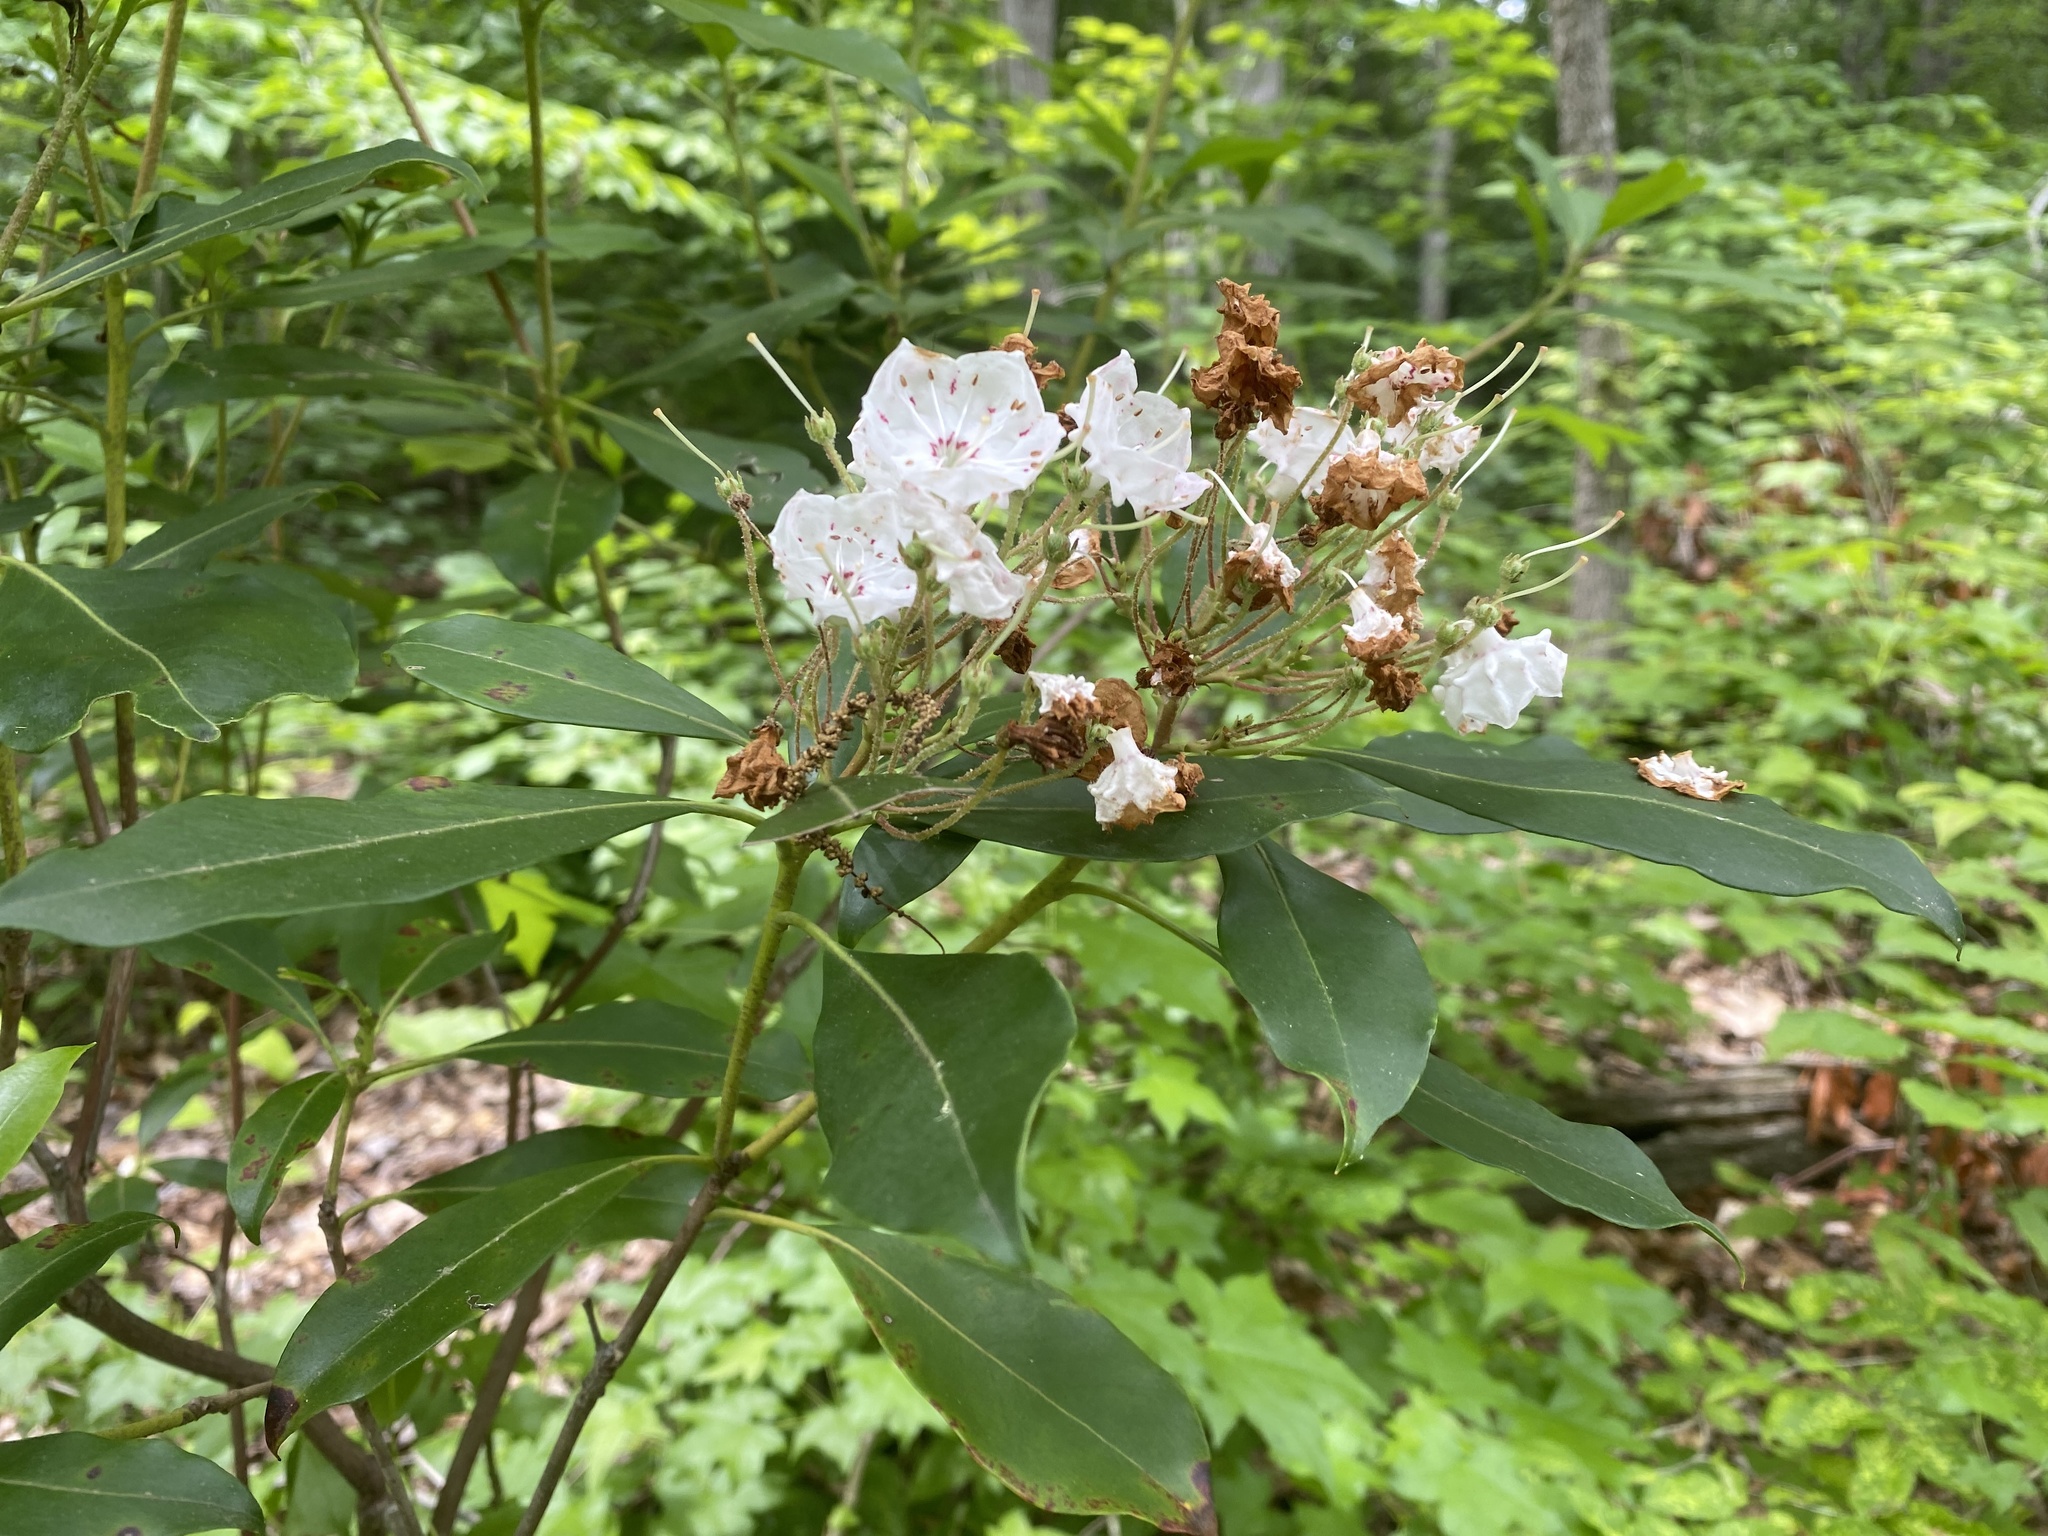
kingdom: Plantae
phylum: Tracheophyta
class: Magnoliopsida
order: Ericales
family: Ericaceae
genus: Kalmia
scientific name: Kalmia latifolia
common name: Mountain-laurel
